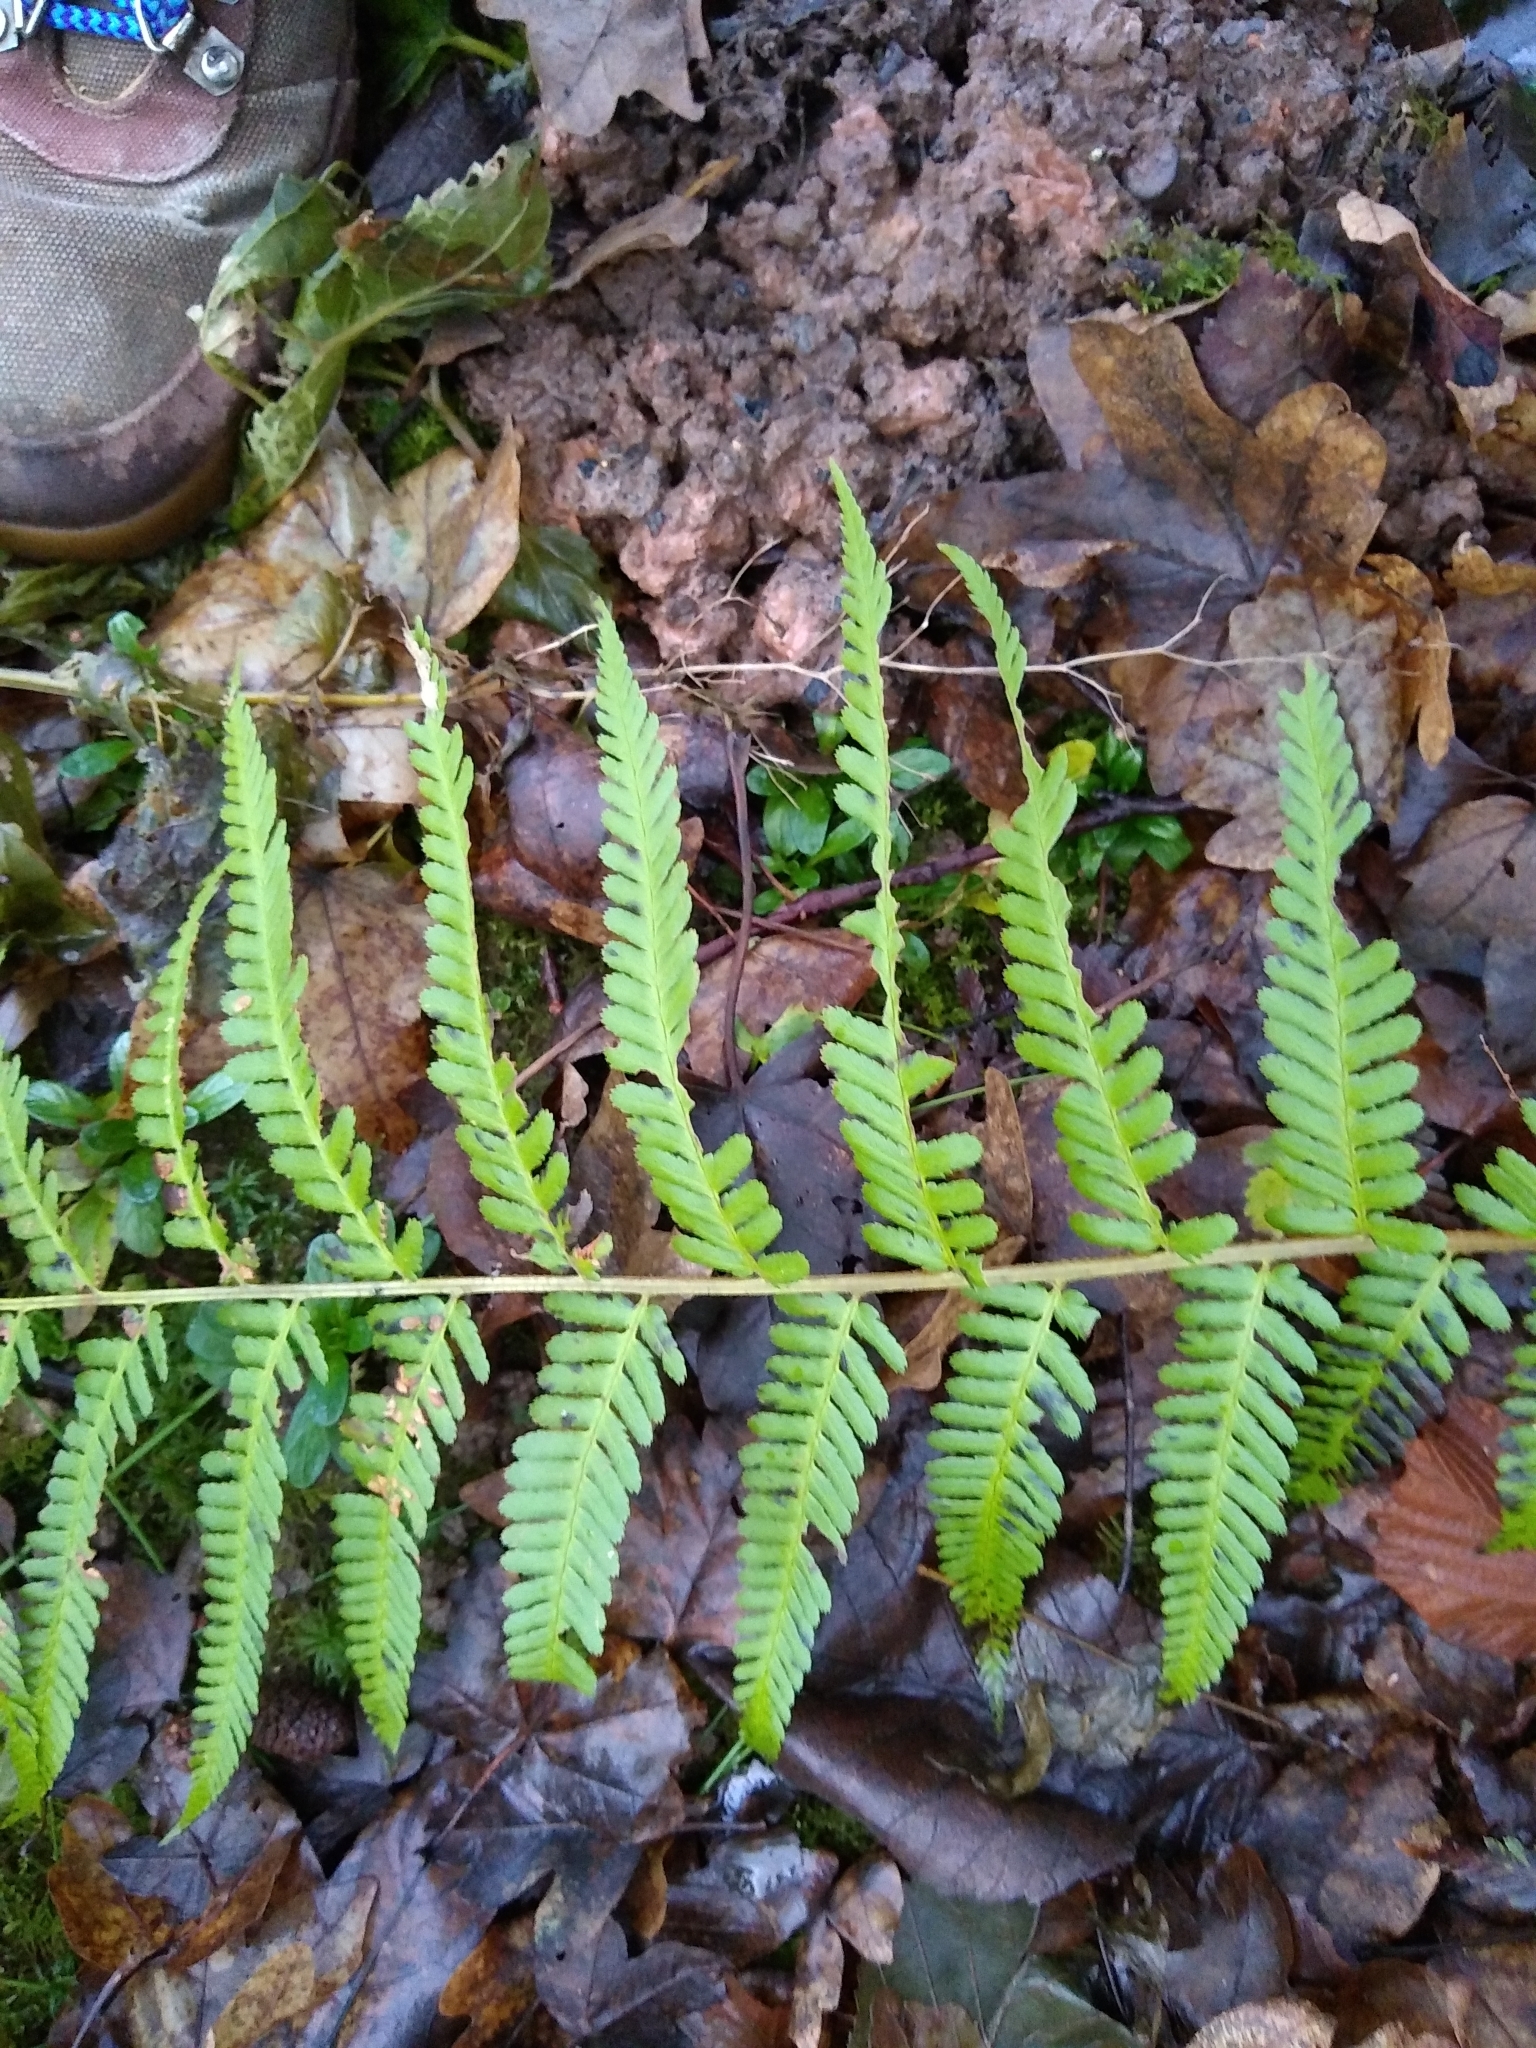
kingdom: Plantae
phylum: Tracheophyta
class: Polypodiopsida
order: Polypodiales
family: Dryopteridaceae
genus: Dryopteris
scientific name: Dryopteris filix-mas
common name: Male fern
